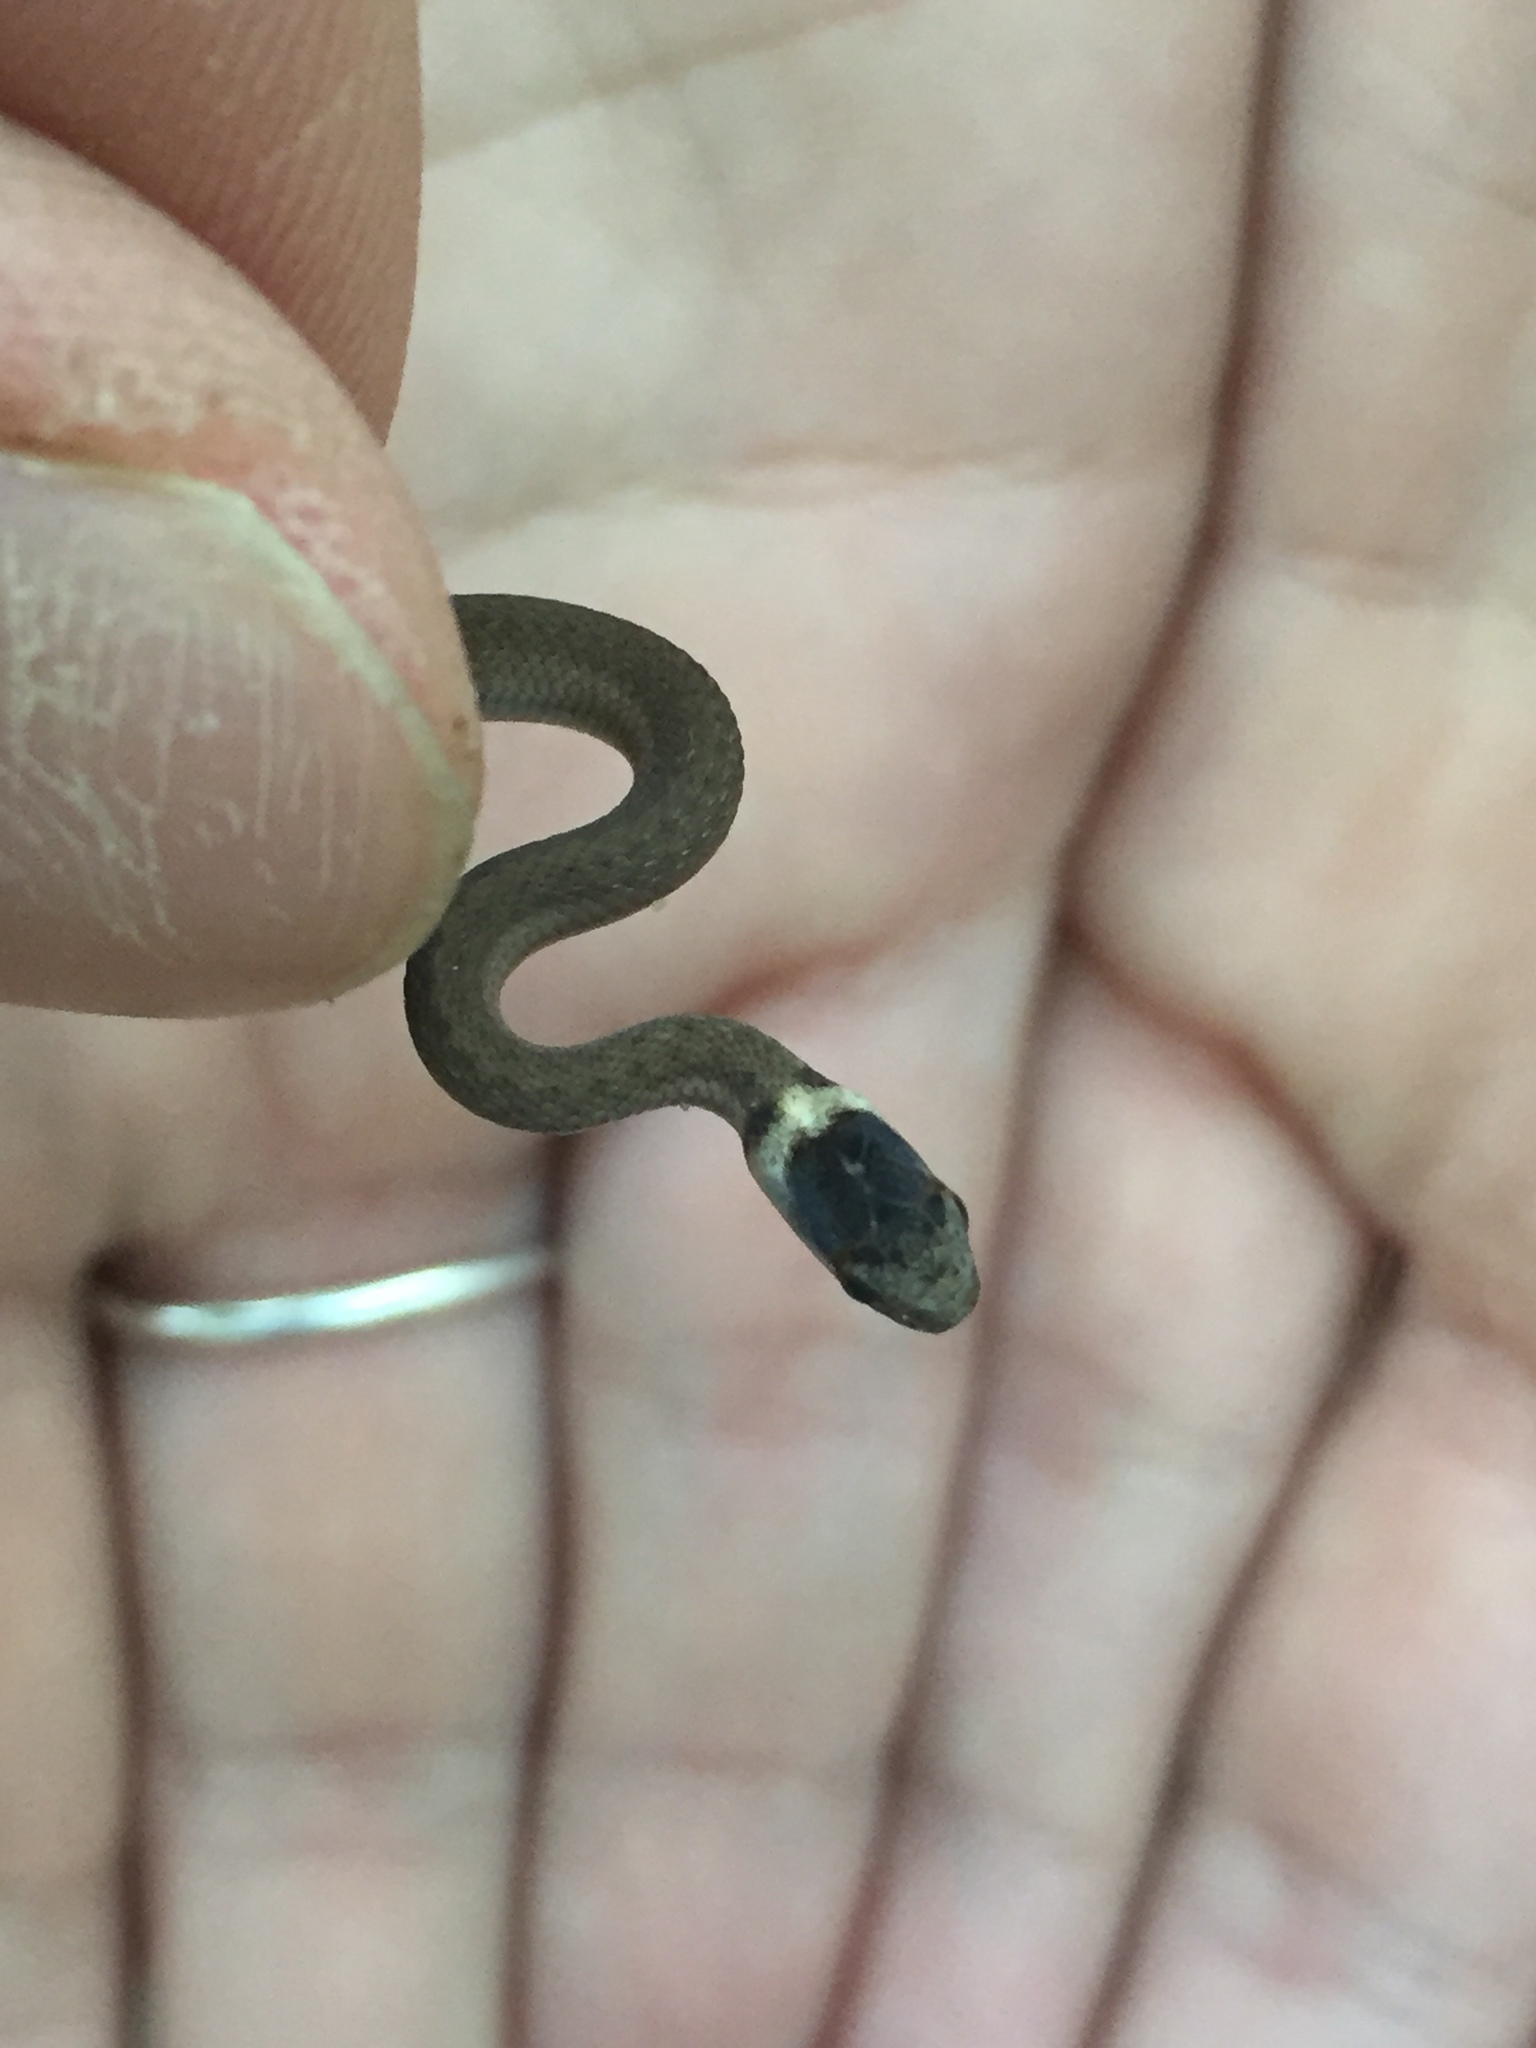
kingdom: Animalia
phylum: Chordata
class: Squamata
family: Colubridae
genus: Storeria
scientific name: Storeria dekayi
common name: (dekay’s) brown snake
